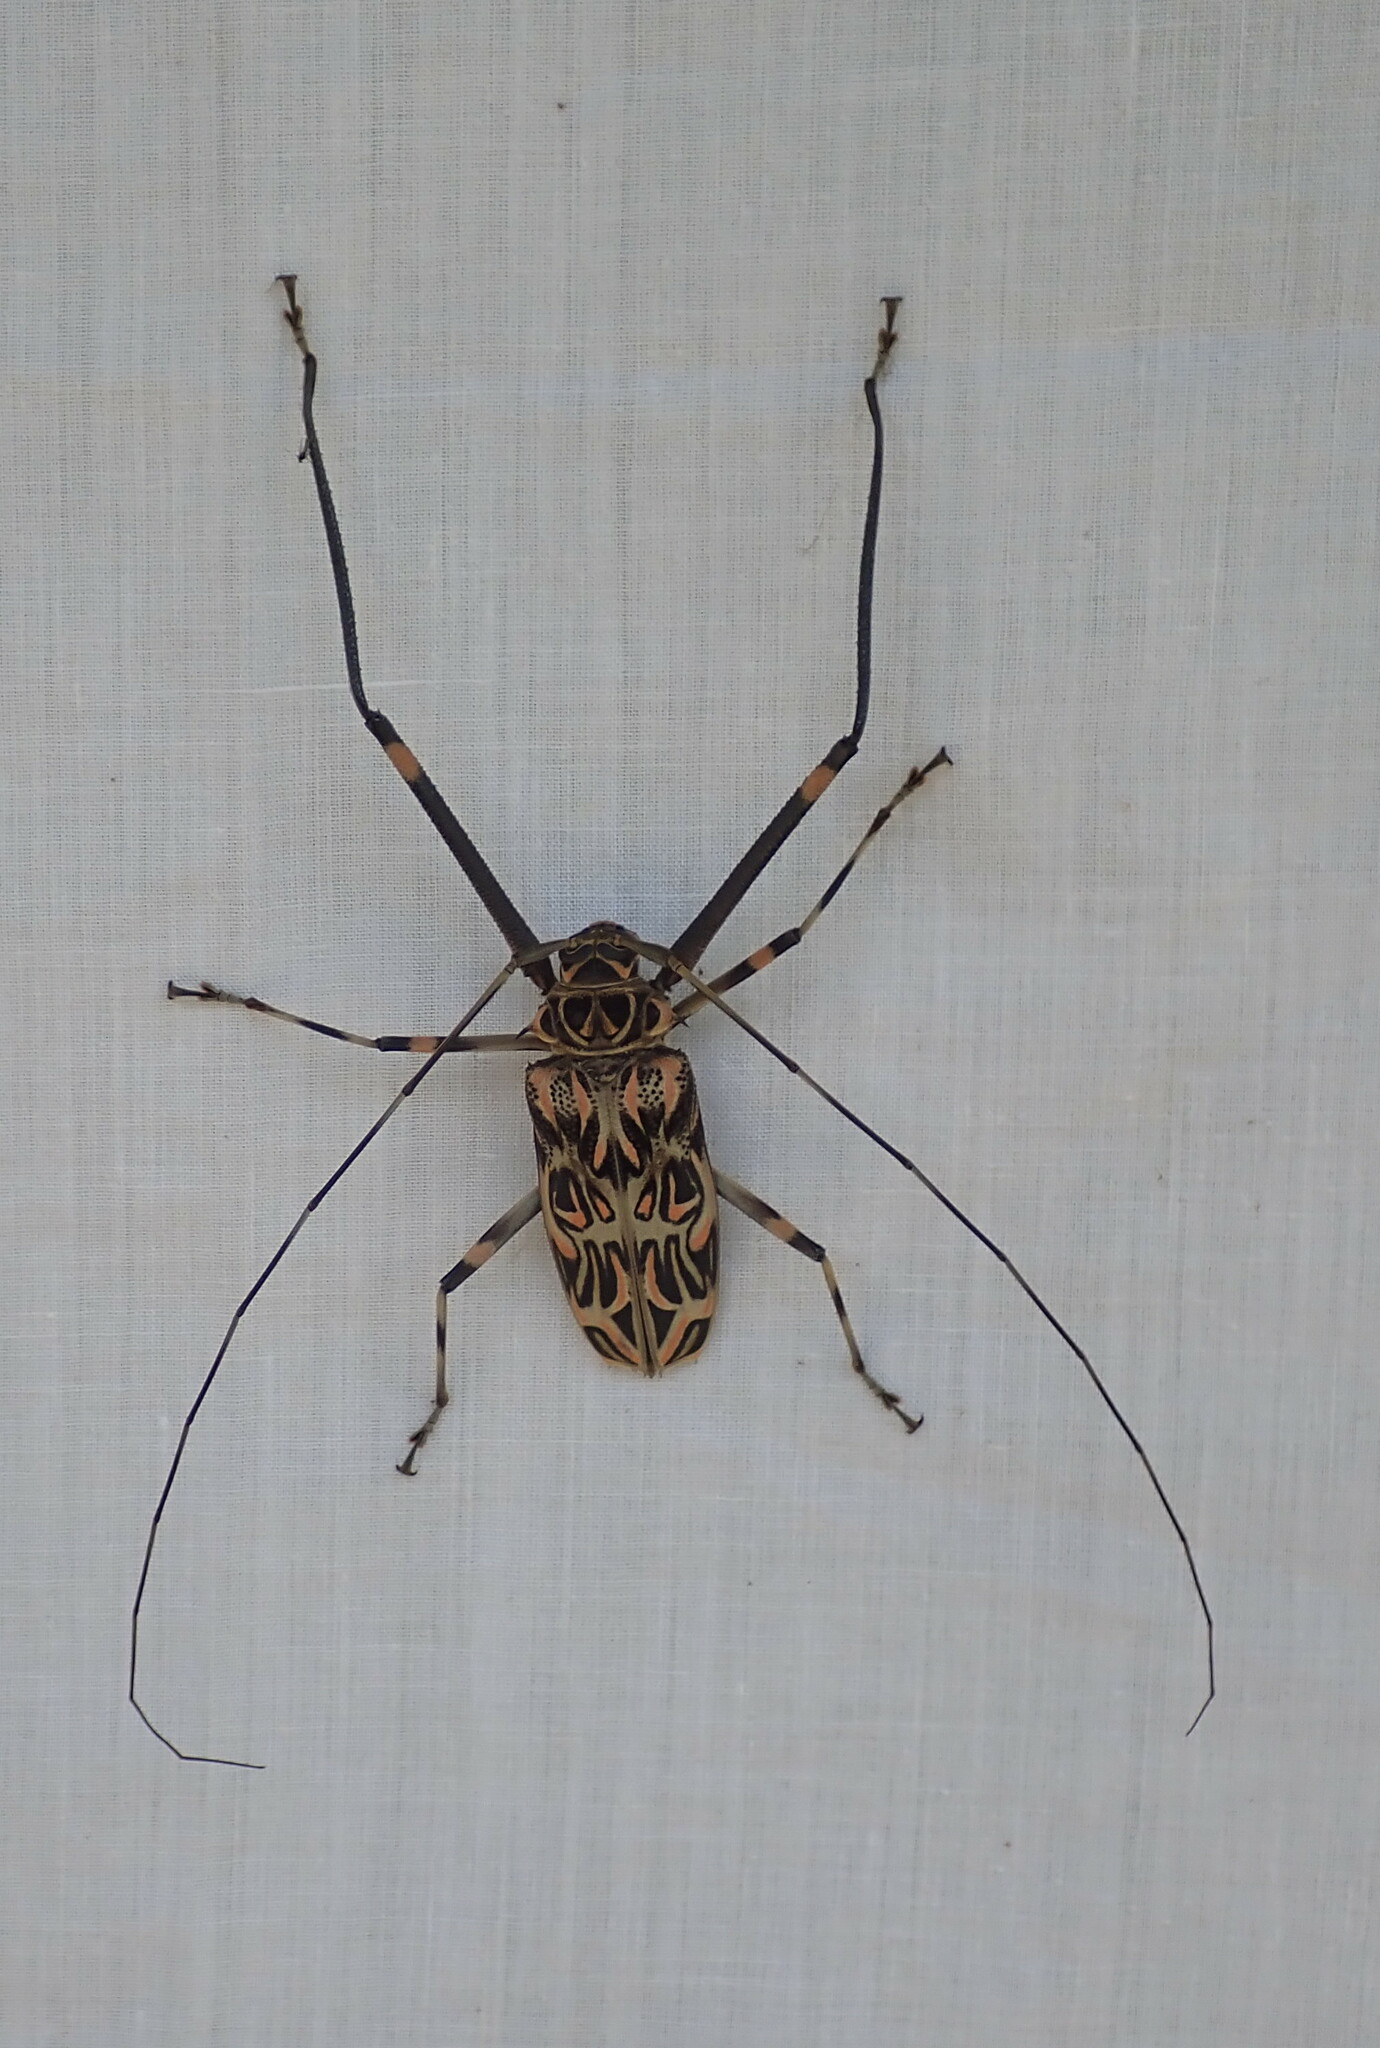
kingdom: Animalia
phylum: Arthropoda
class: Insecta
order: Coleoptera
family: Cerambycidae
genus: Acrocinus
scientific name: Acrocinus longimanus
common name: Arlequin
